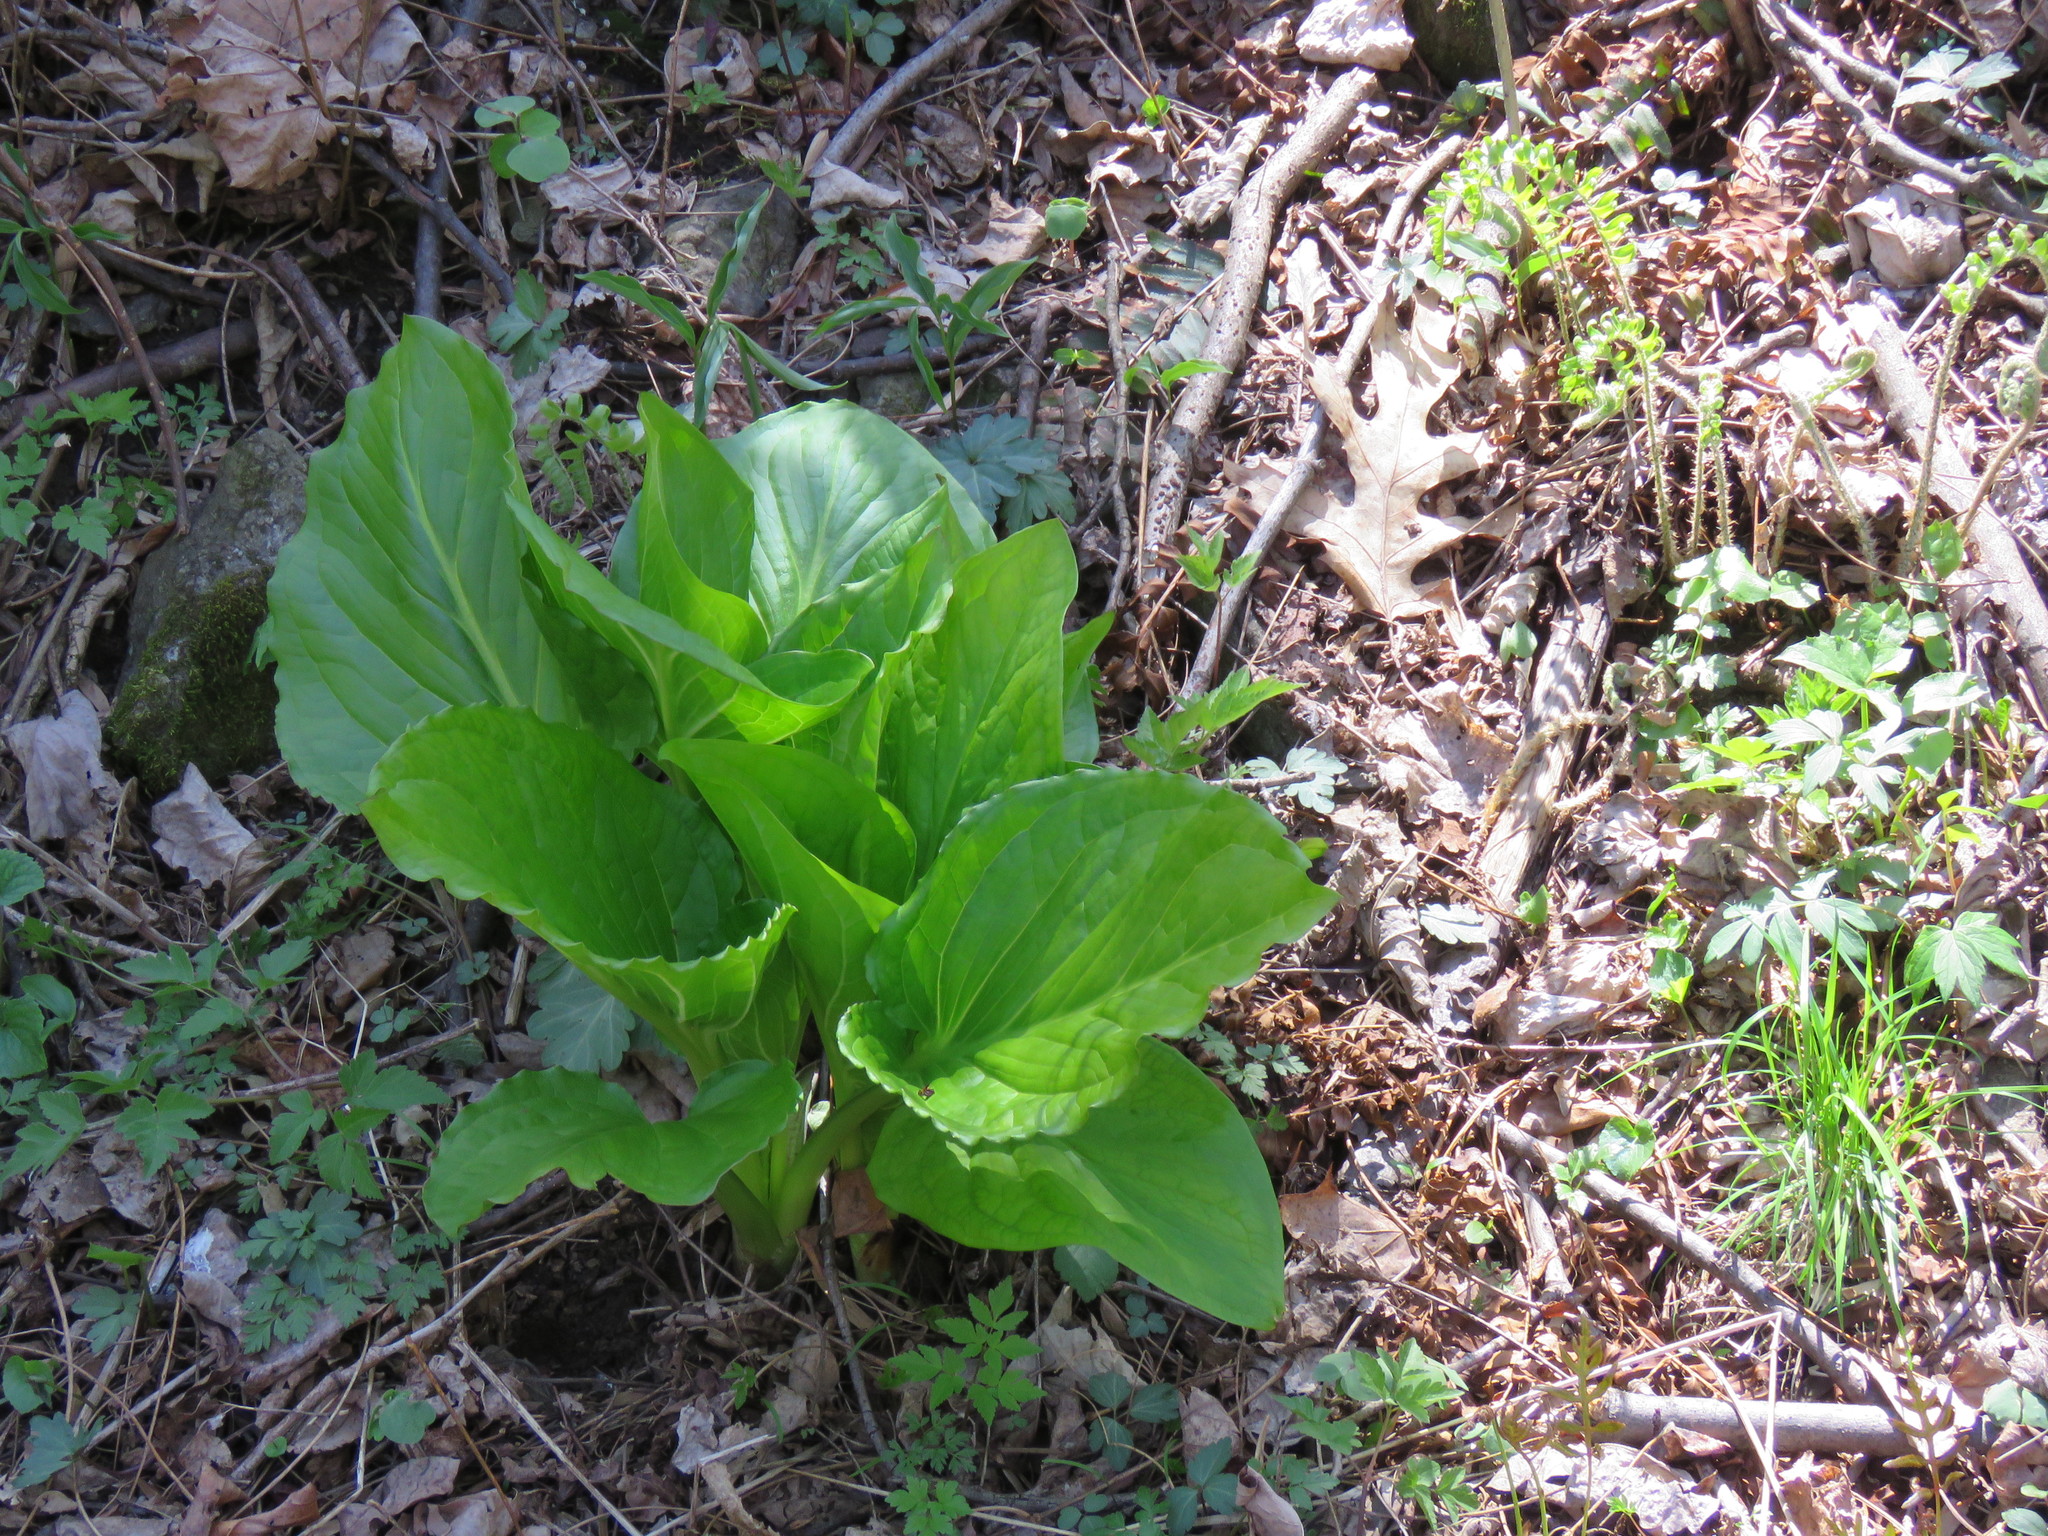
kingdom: Plantae
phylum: Tracheophyta
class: Liliopsida
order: Alismatales
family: Araceae
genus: Symplocarpus
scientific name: Symplocarpus foetidus
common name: Eastern skunk cabbage
